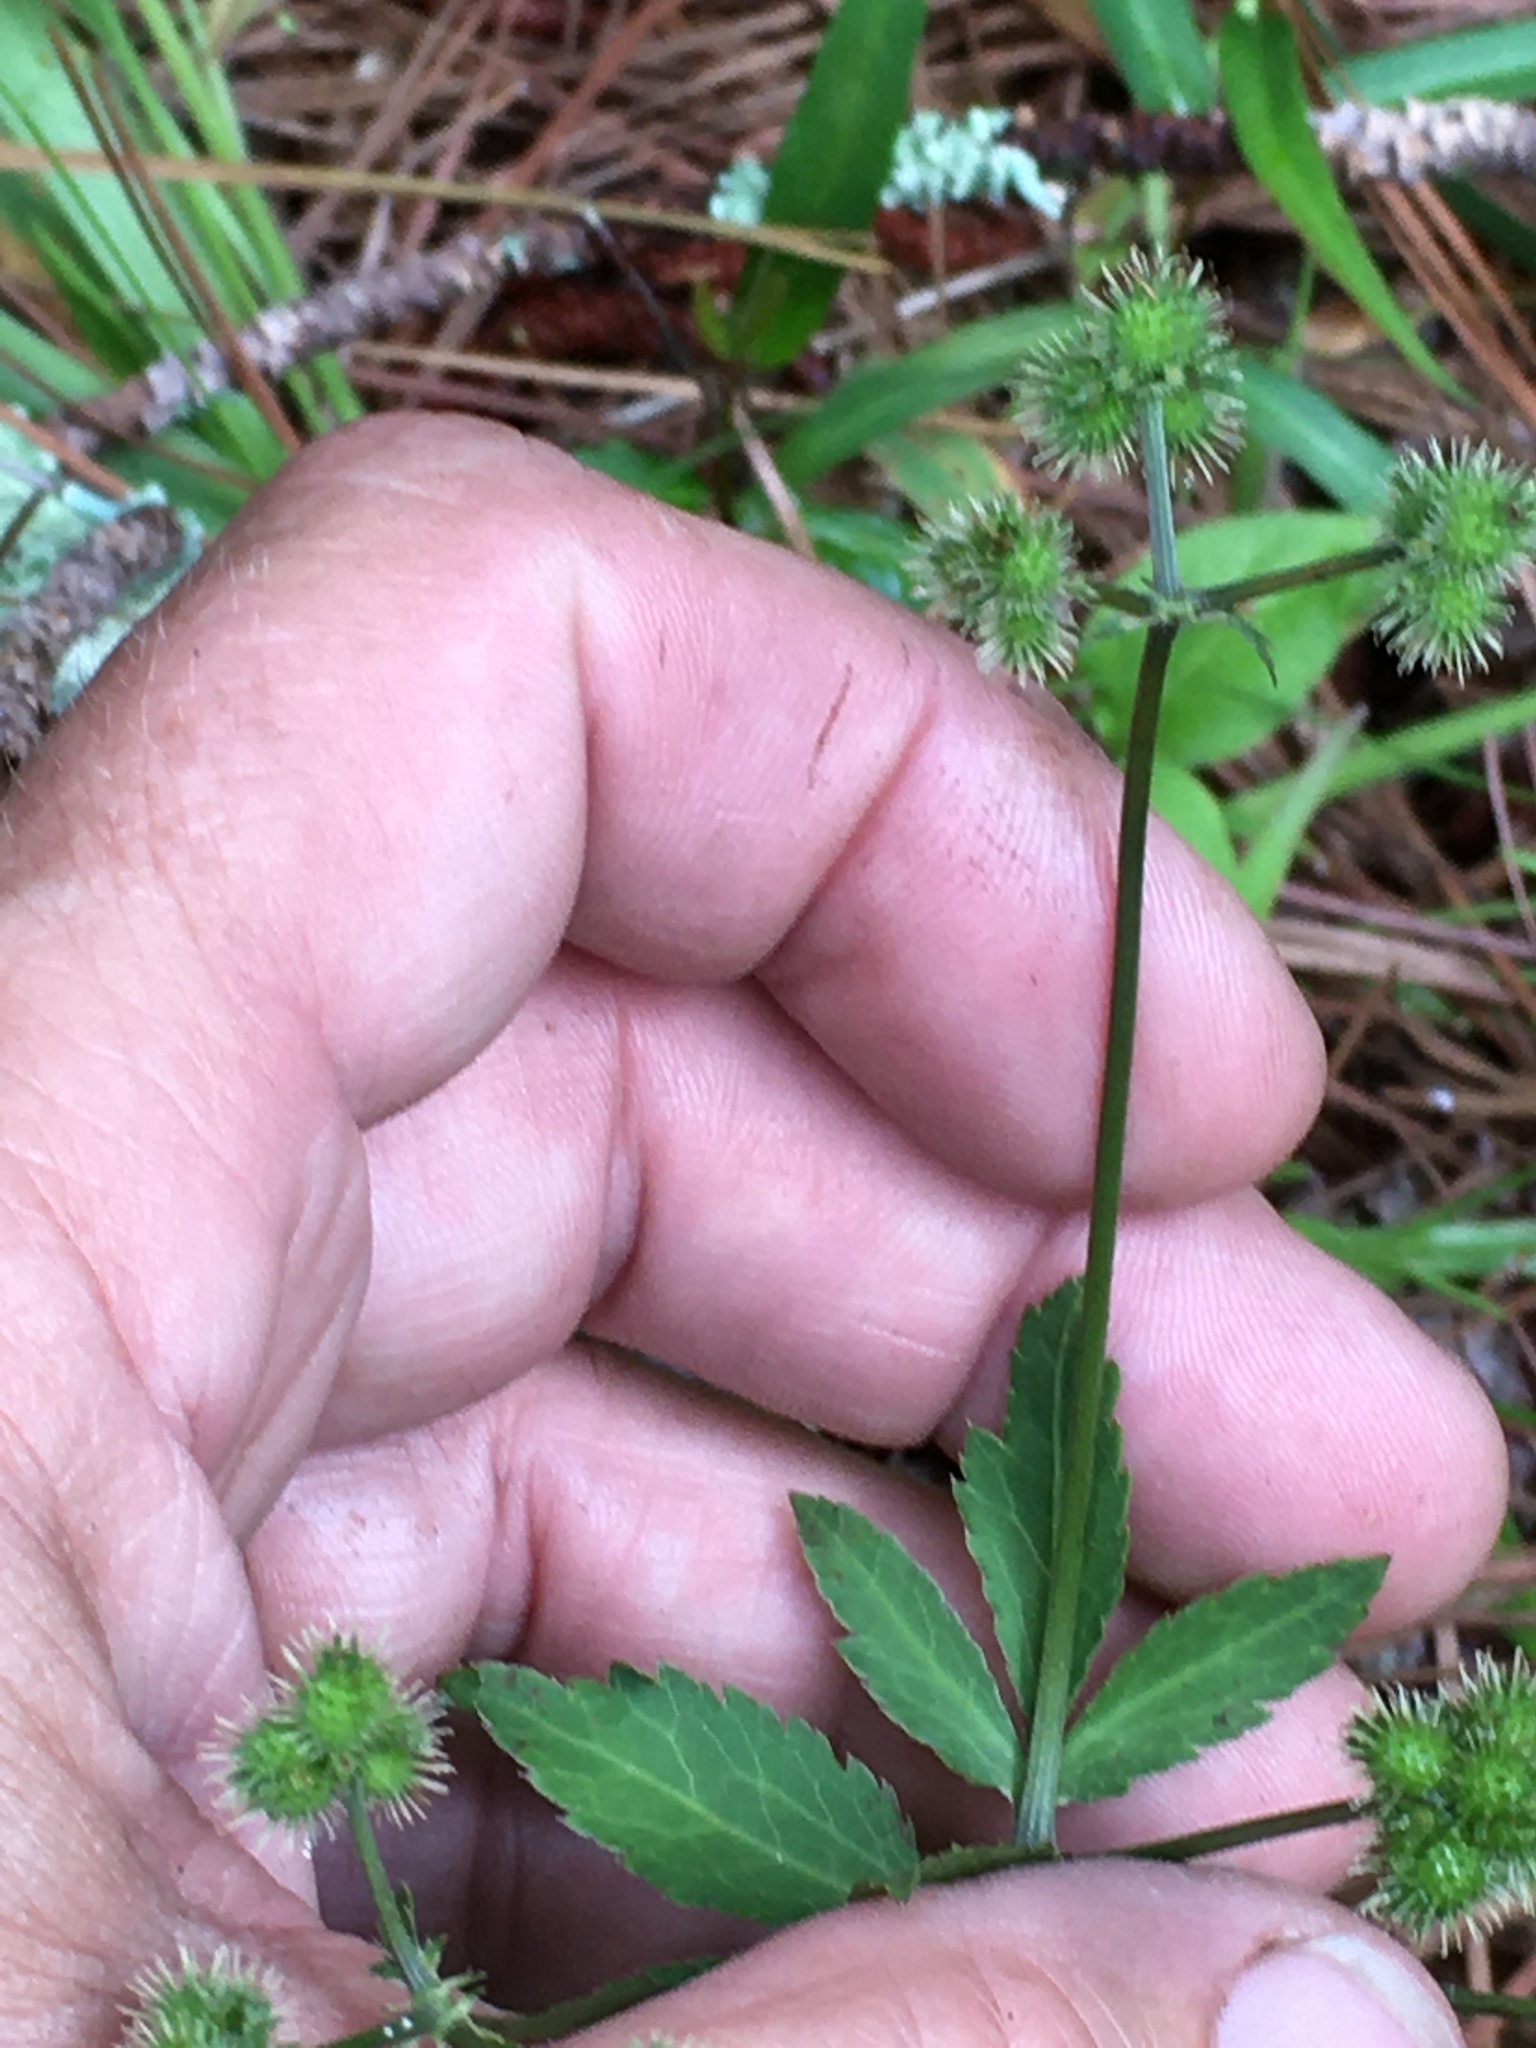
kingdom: Plantae
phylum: Tracheophyta
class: Magnoliopsida
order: Apiales
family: Apiaceae
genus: Sanicula
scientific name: Sanicula smallii
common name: Small's black snakeroot
